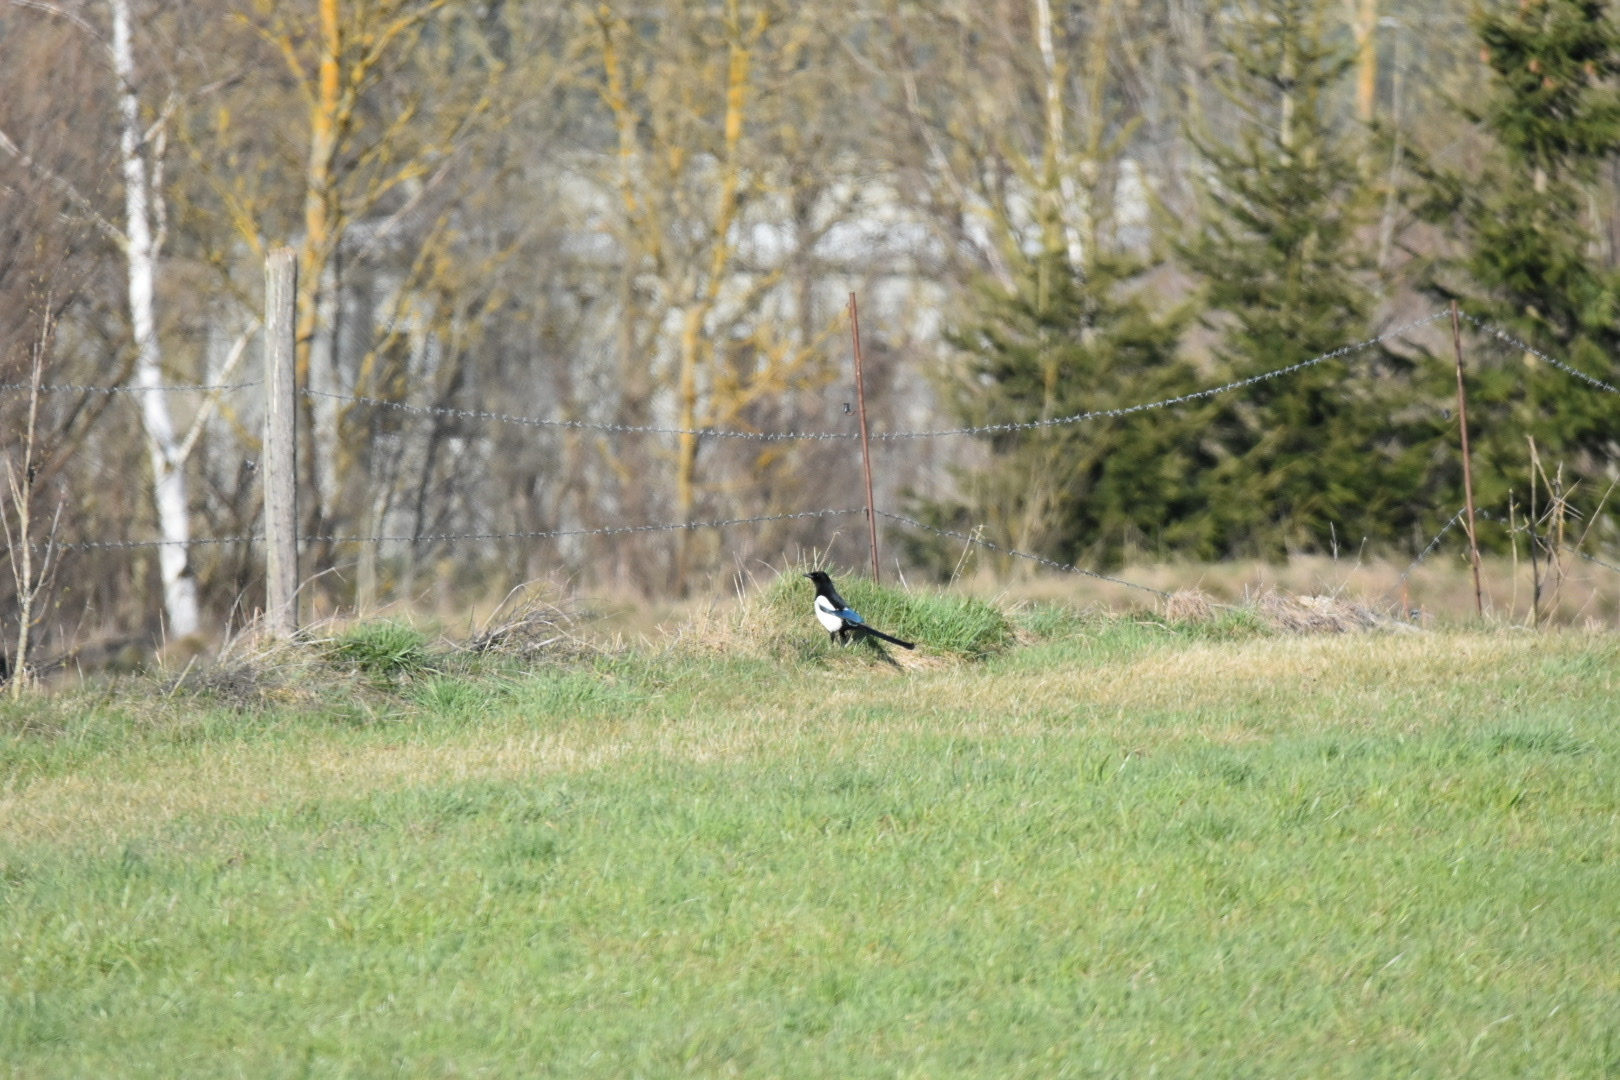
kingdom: Animalia
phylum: Chordata
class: Aves
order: Passeriformes
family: Corvidae
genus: Pica
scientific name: Pica pica
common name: Eurasian magpie
